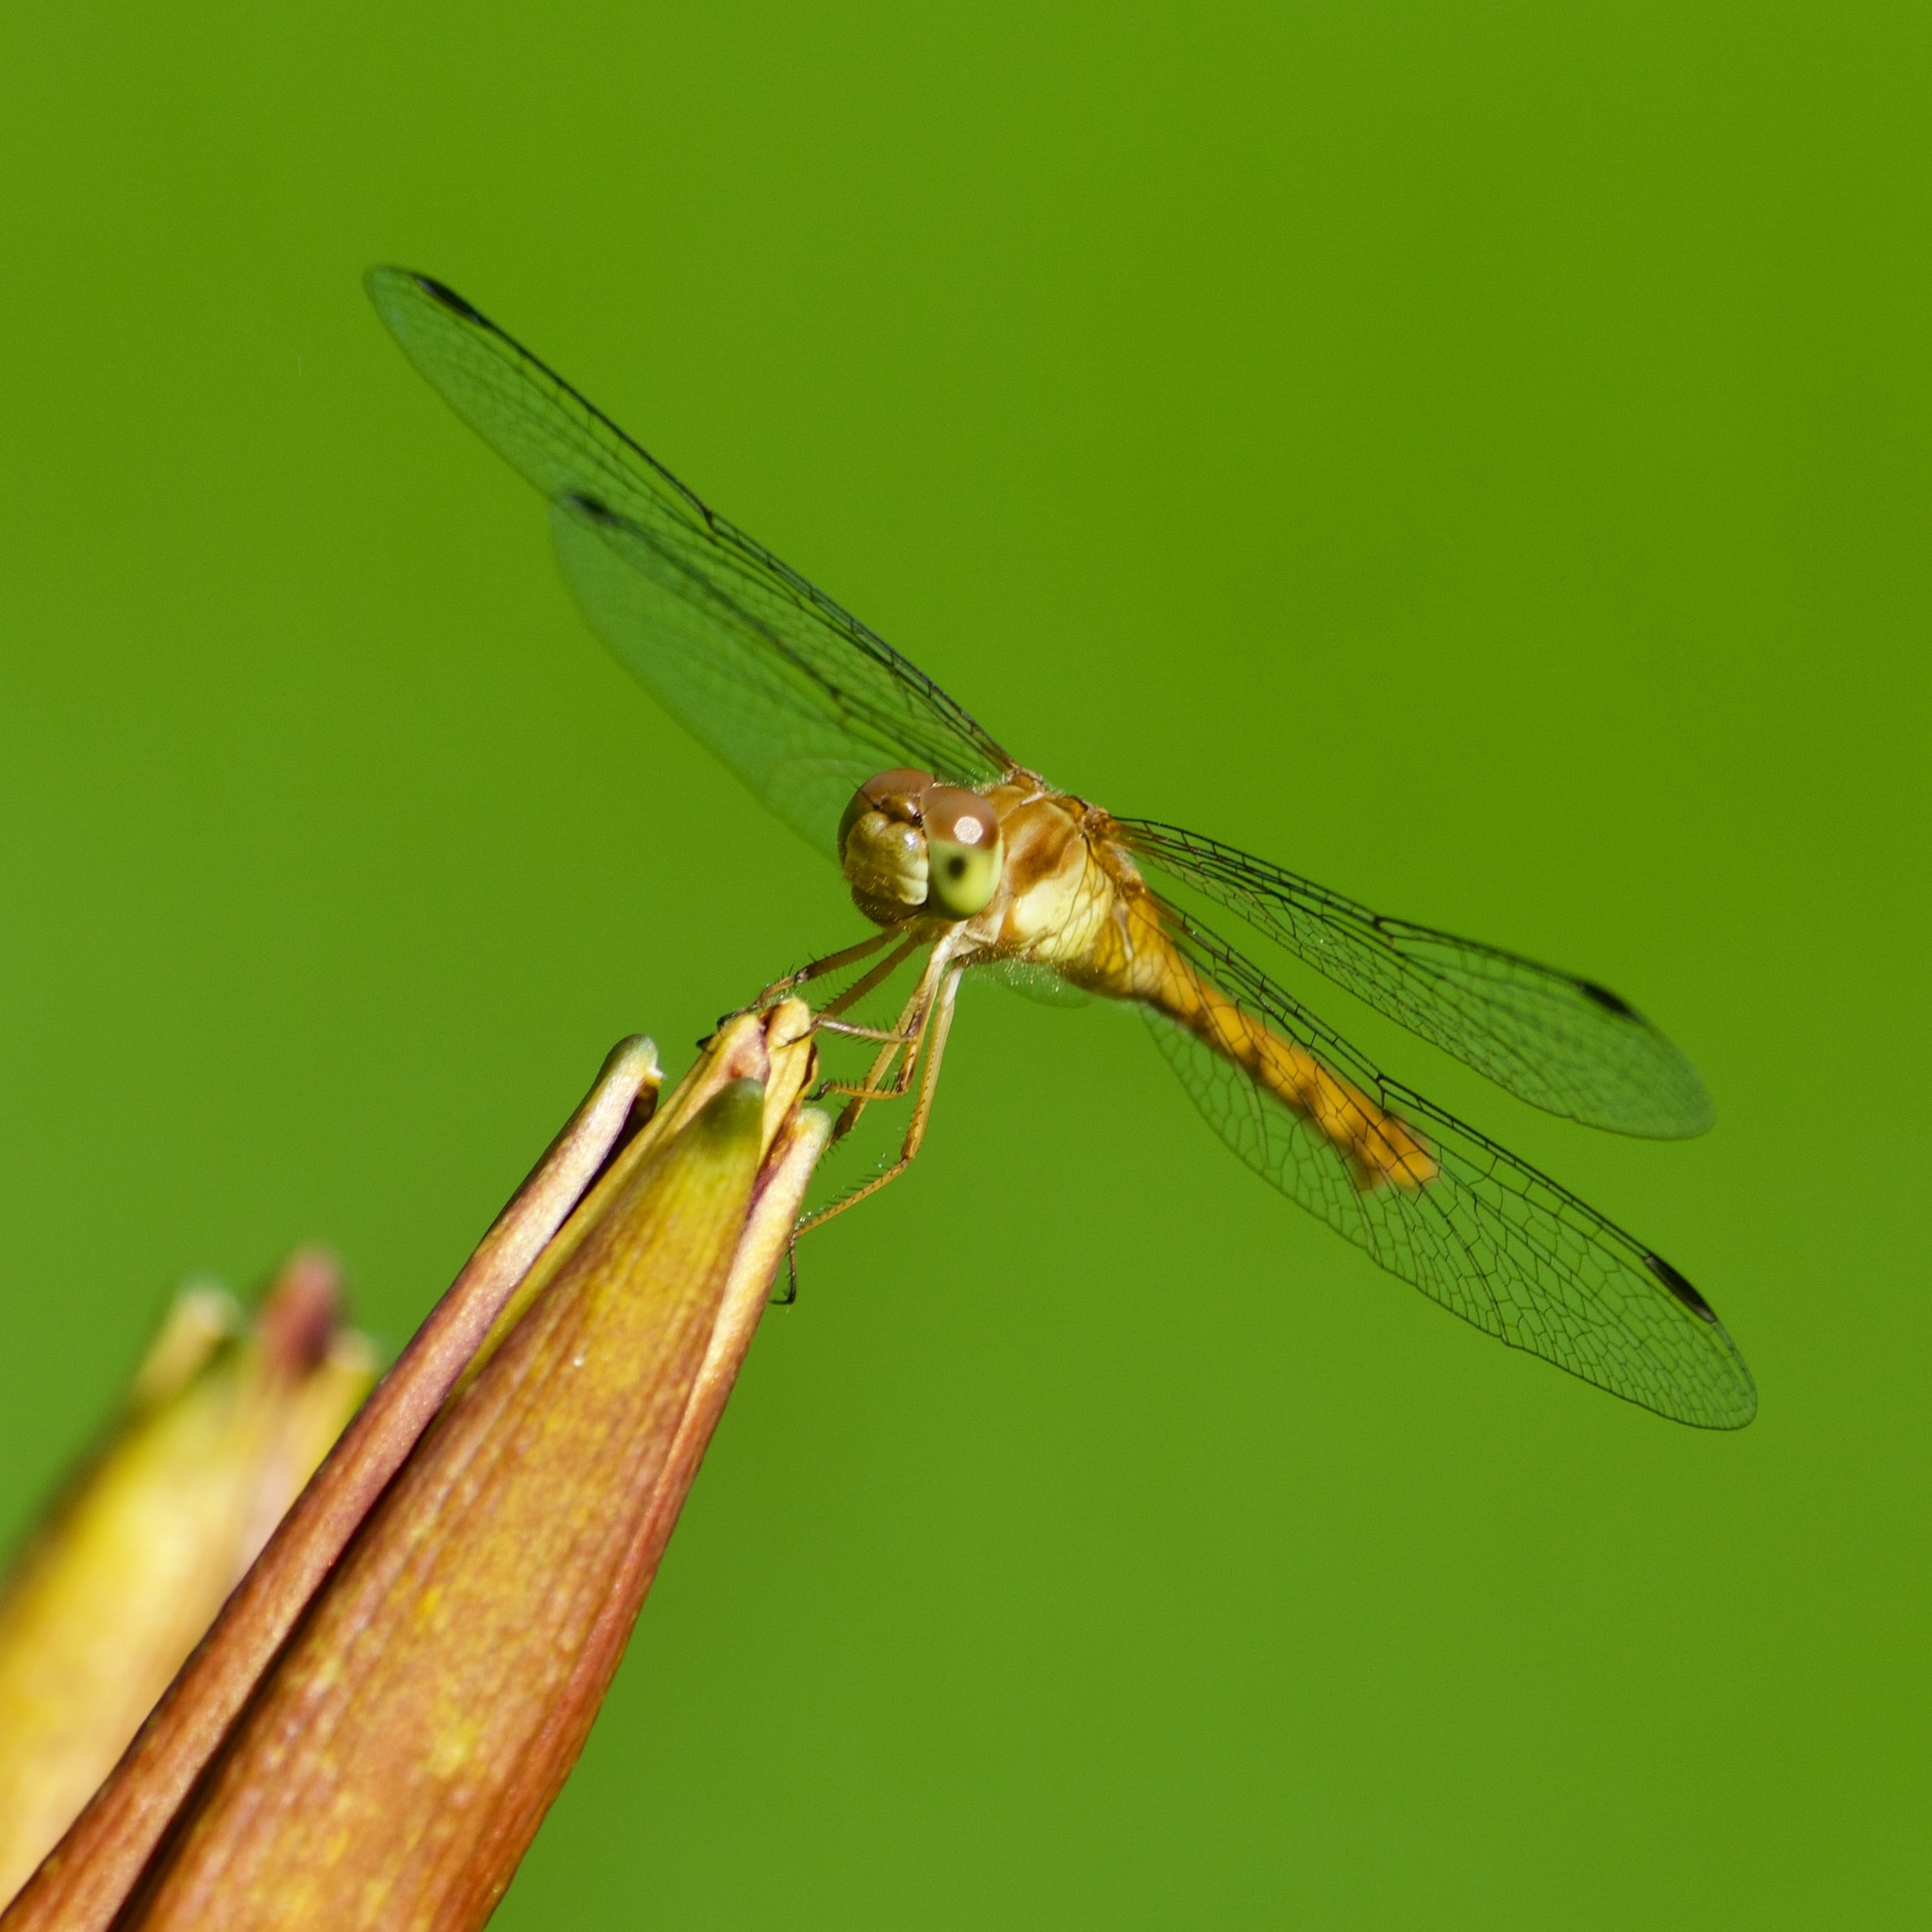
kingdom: Animalia
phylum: Arthropoda
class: Insecta
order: Odonata
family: Libellulidae
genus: Sympetrum
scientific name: Sympetrum vicinum
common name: Autumn meadowhawk
